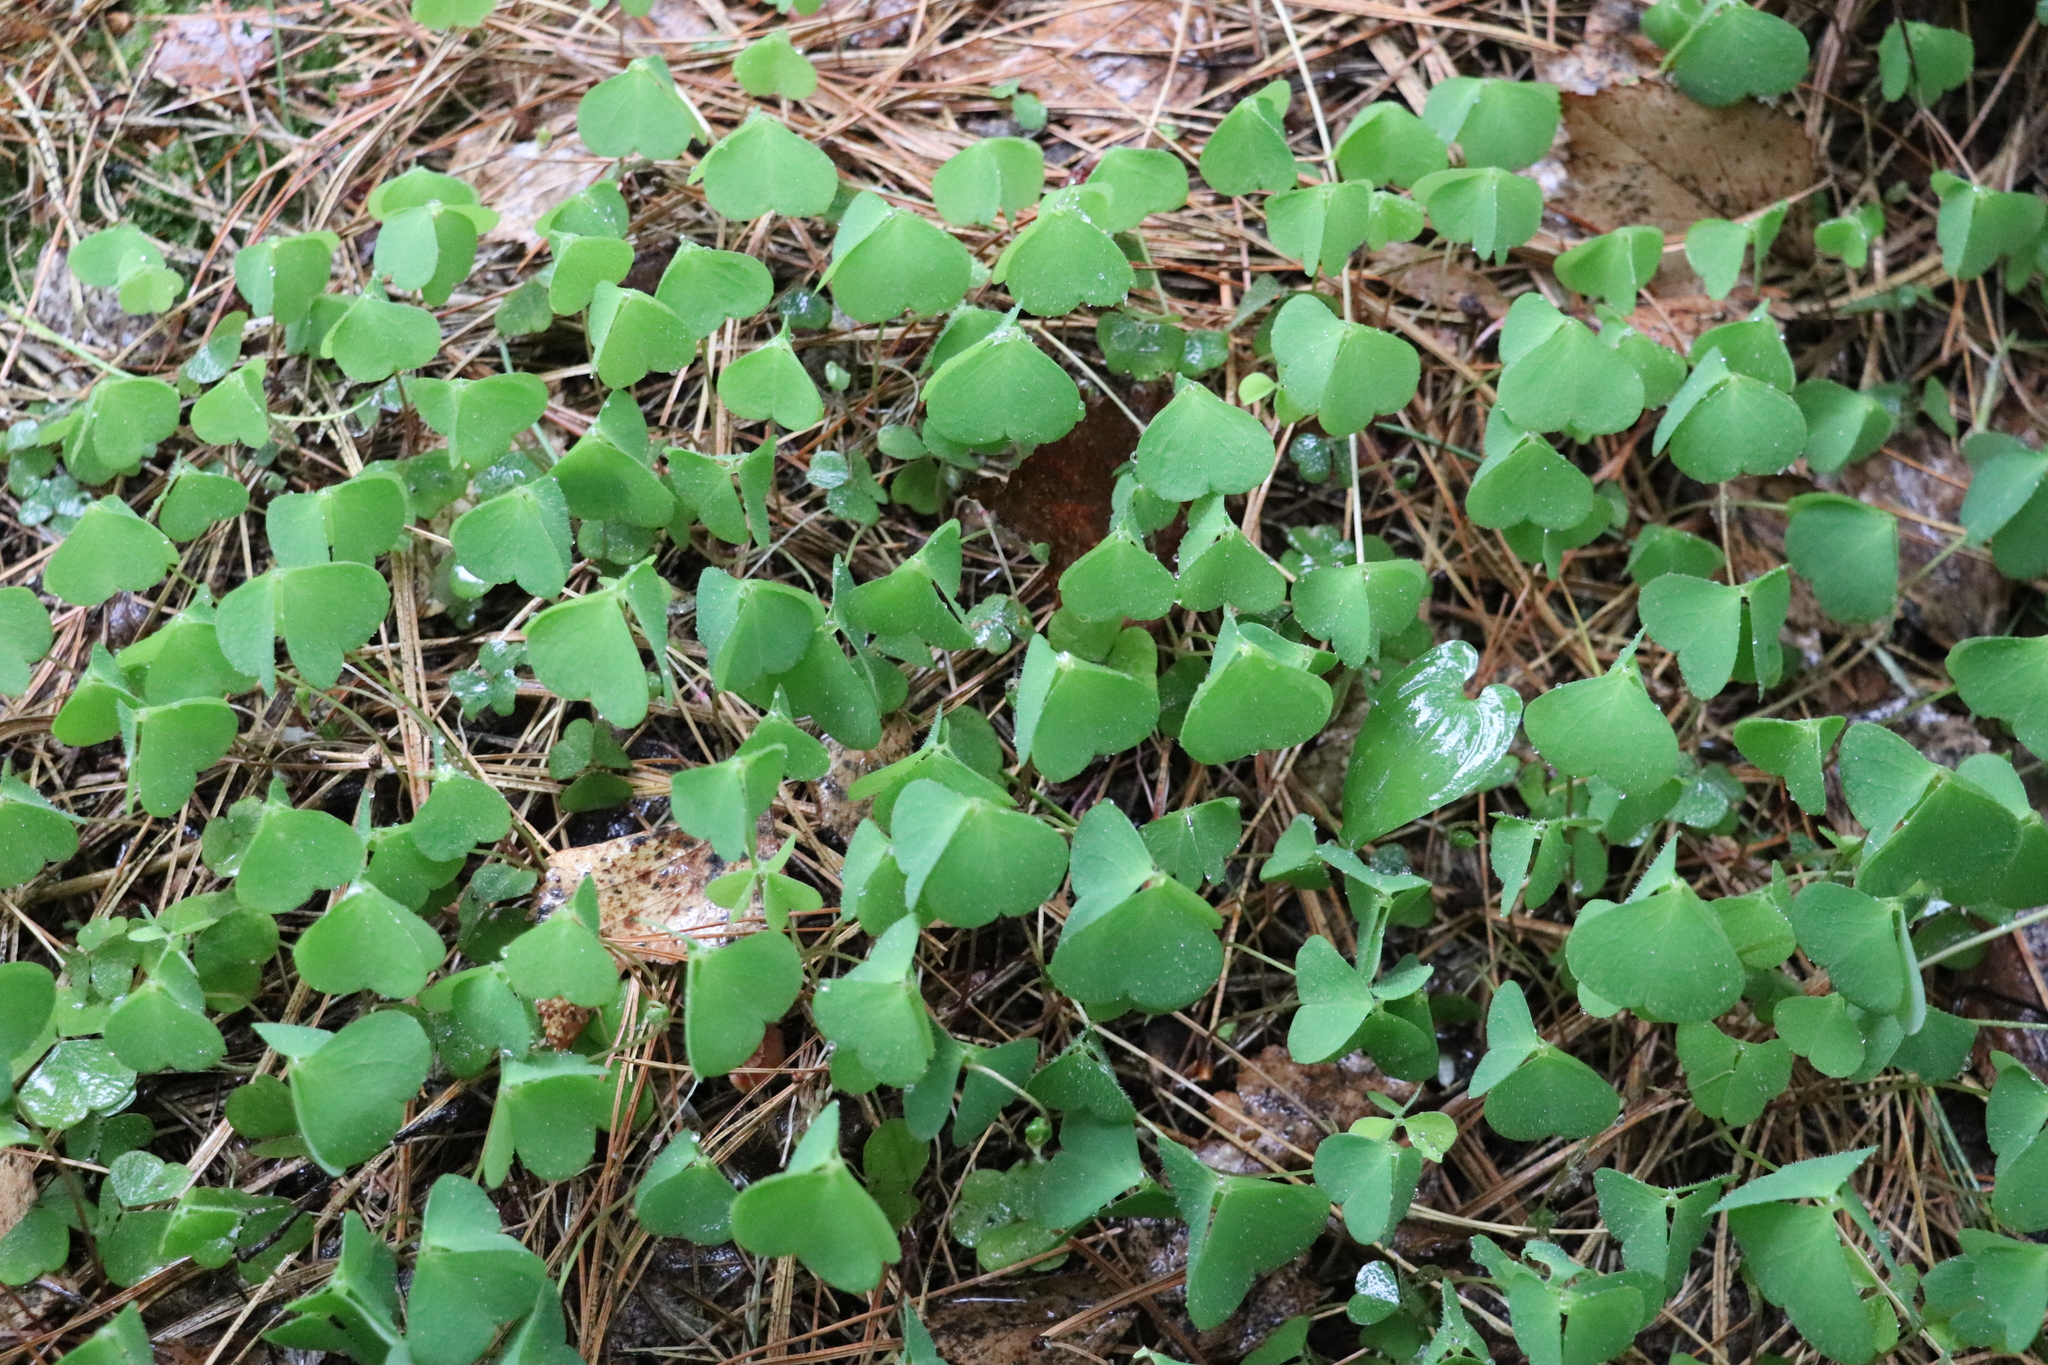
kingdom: Plantae
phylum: Tracheophyta
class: Magnoliopsida
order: Oxalidales
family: Oxalidaceae
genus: Oxalis
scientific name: Oxalis acetosella
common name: Wood-sorrel
